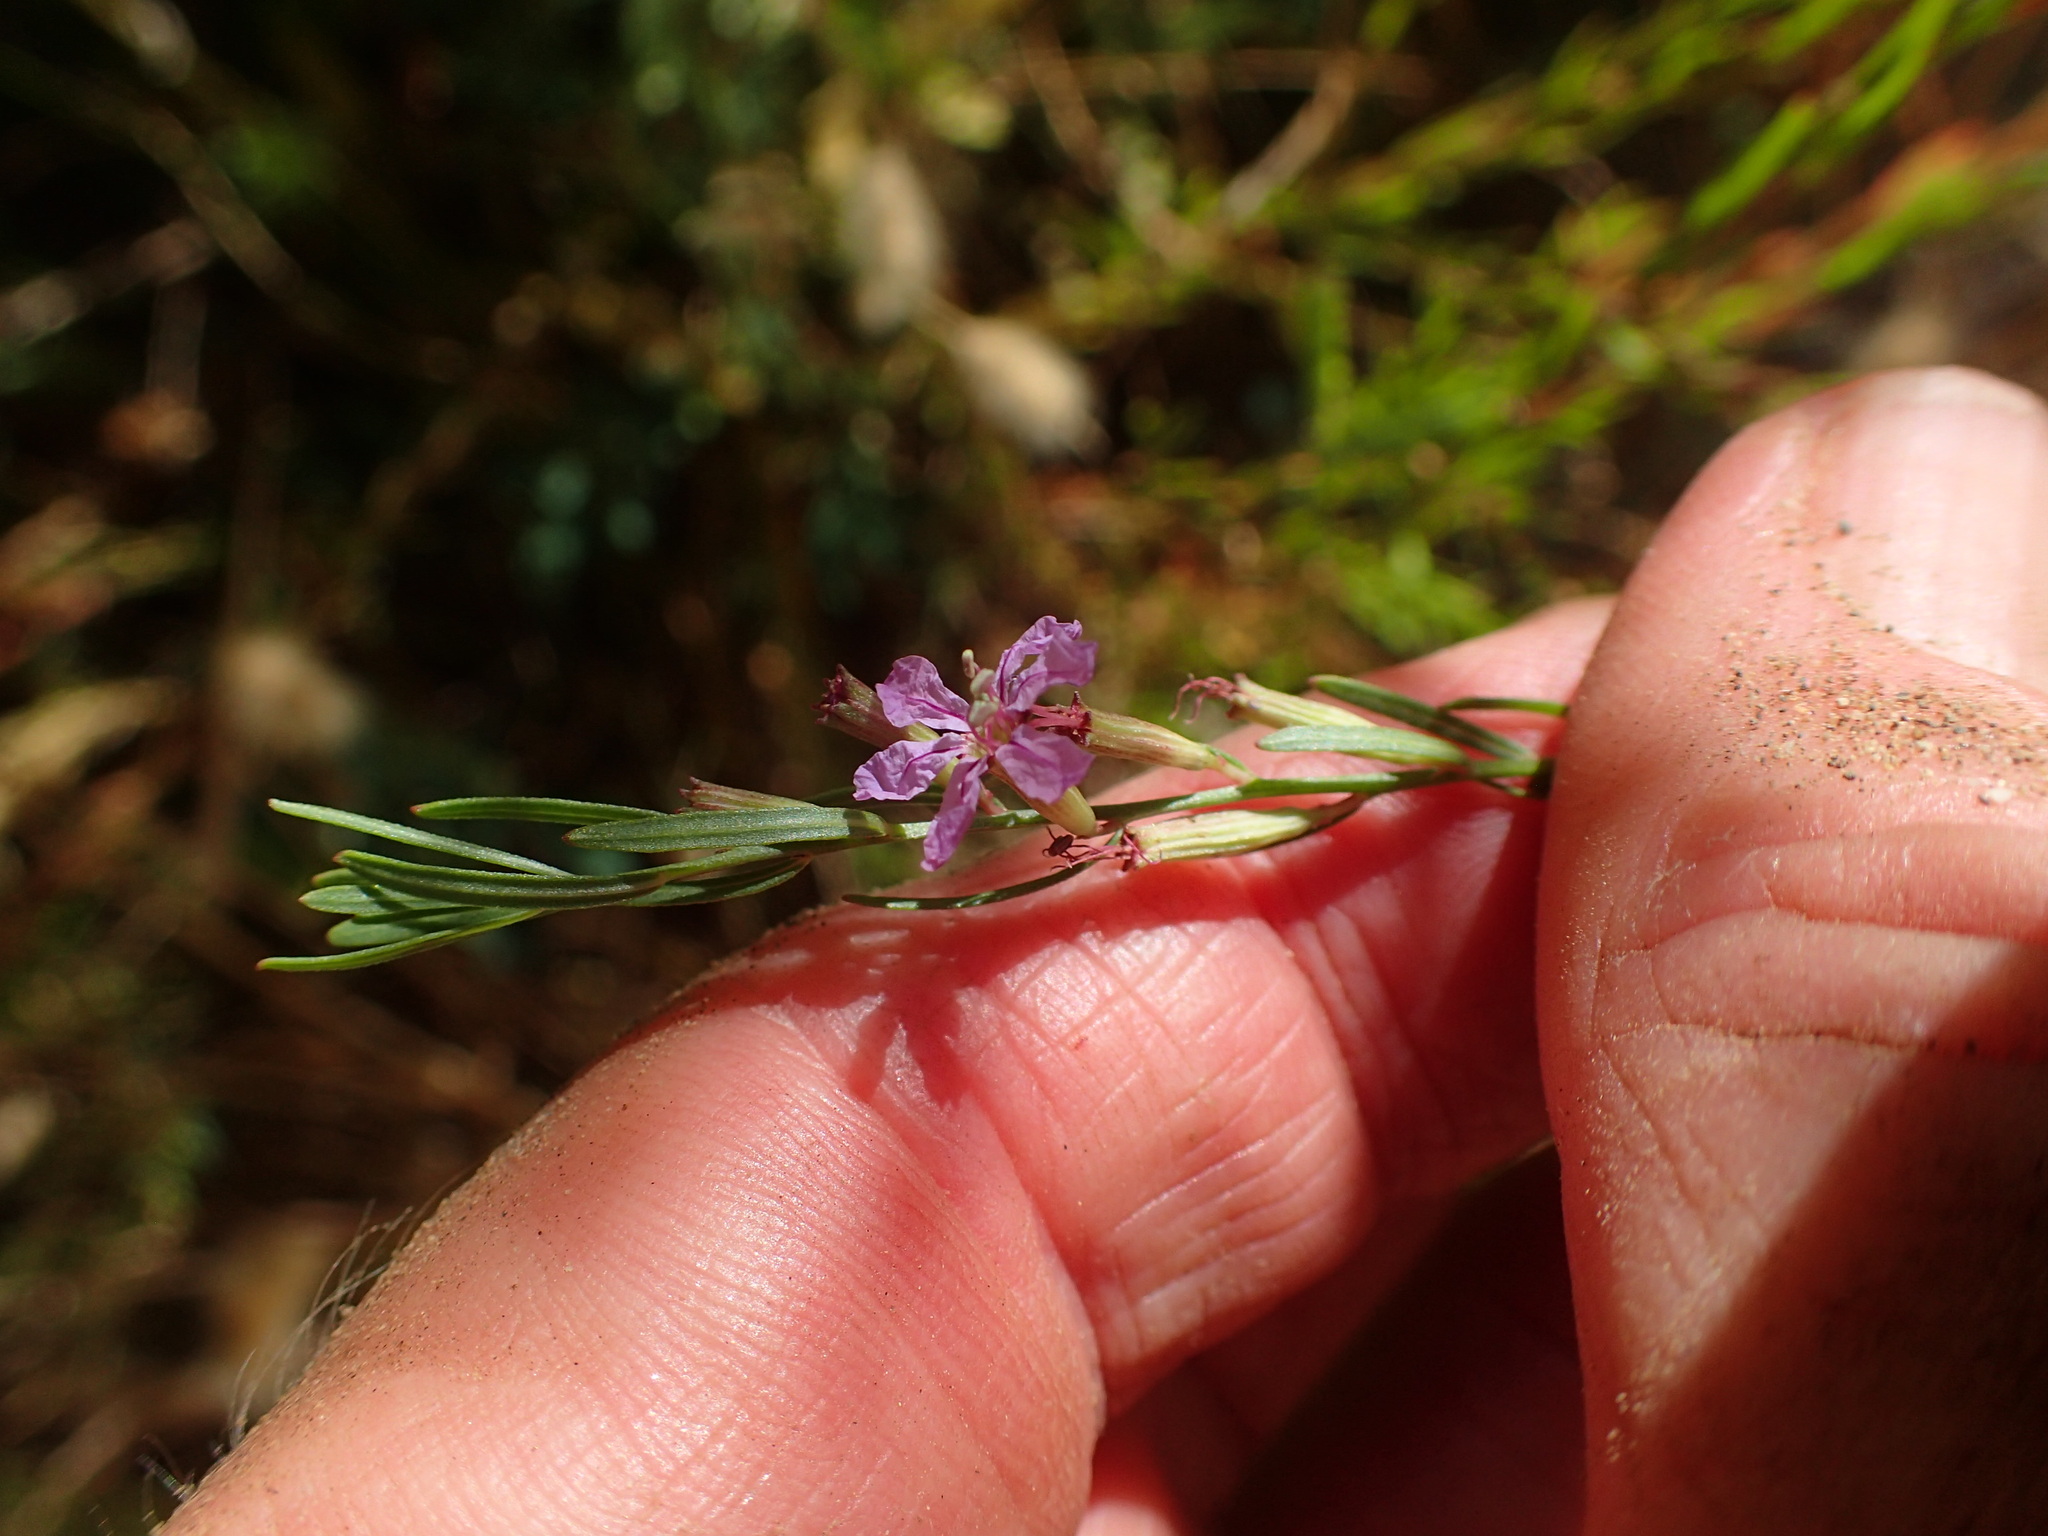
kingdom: Plantae
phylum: Tracheophyta
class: Magnoliopsida
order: Myrtales
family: Lythraceae
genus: Lythrum
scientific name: Lythrum californicum
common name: California loosestrife
